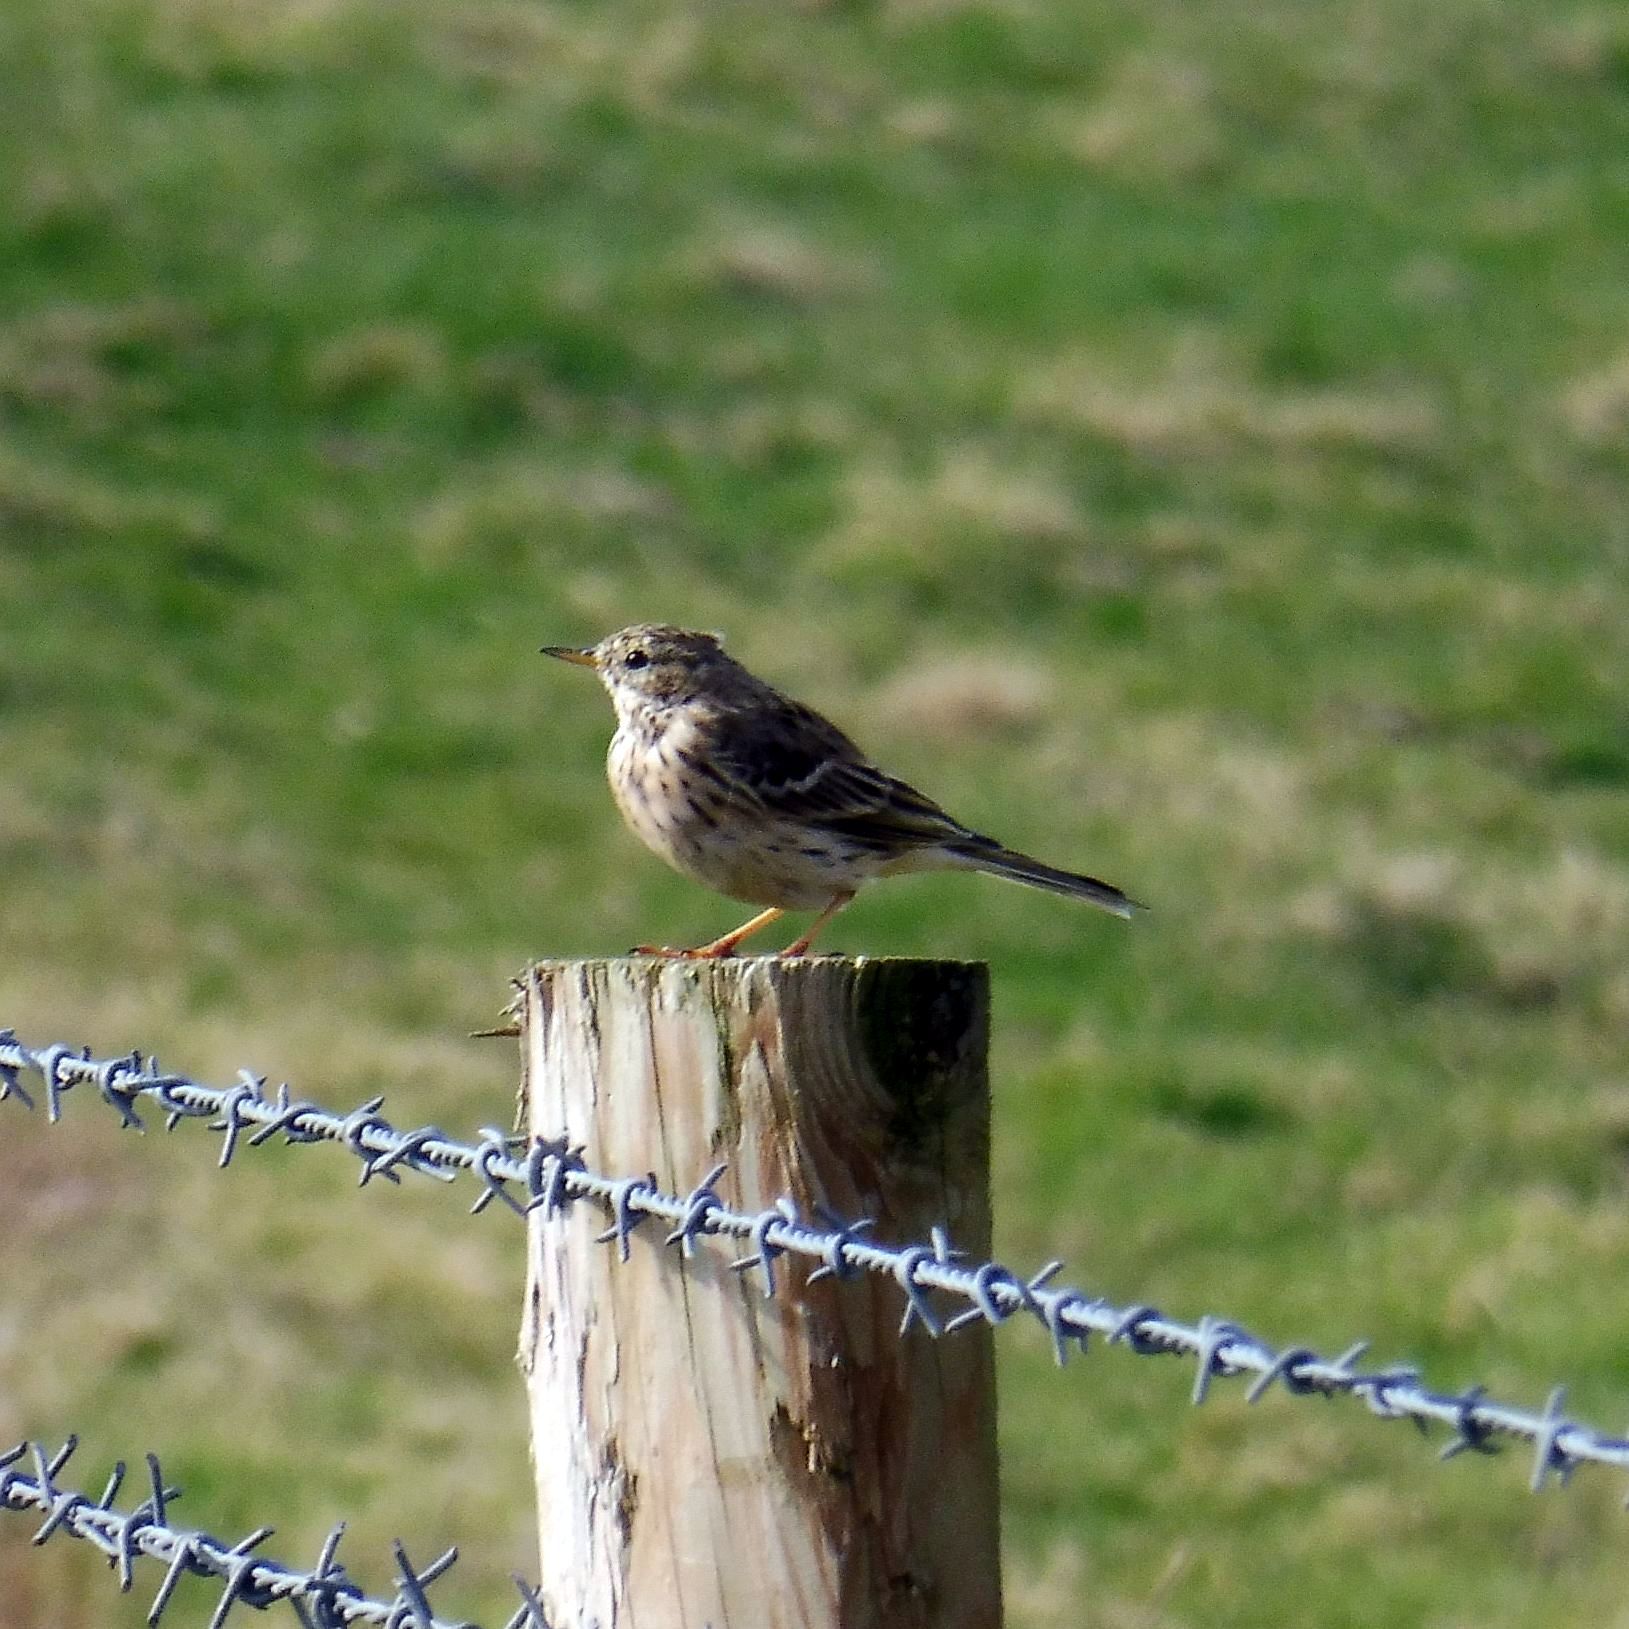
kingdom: Animalia
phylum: Chordata
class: Aves
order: Passeriformes
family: Motacillidae
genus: Anthus
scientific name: Anthus pratensis
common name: Meadow pipit
